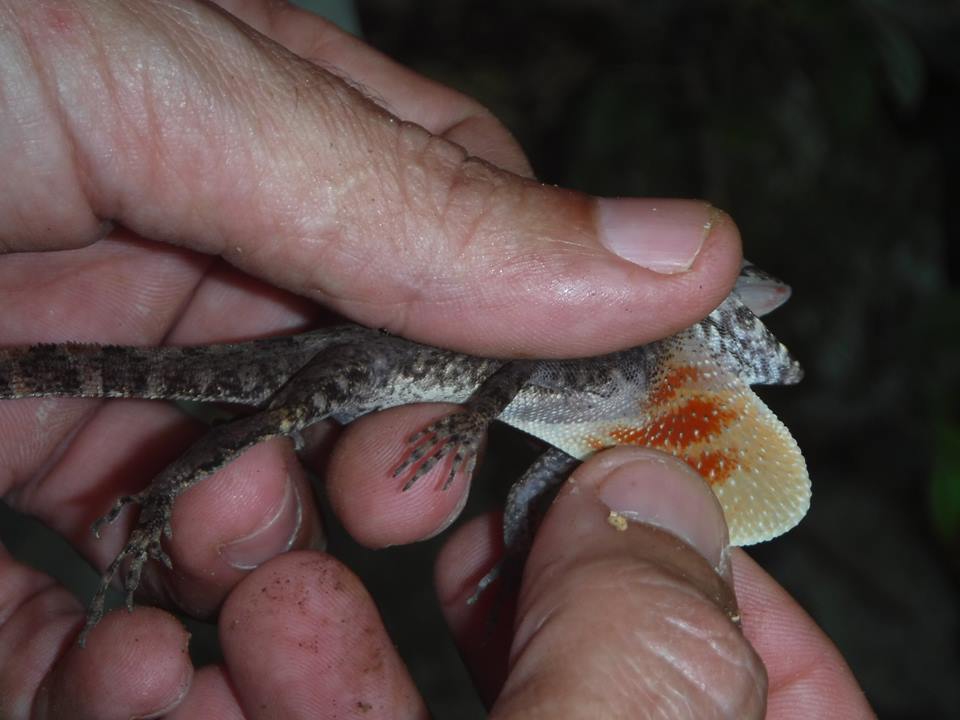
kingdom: Animalia
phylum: Chordata
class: Squamata
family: Dactyloidae
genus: Anolis
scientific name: Anolis allogus
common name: Bueycito anole
